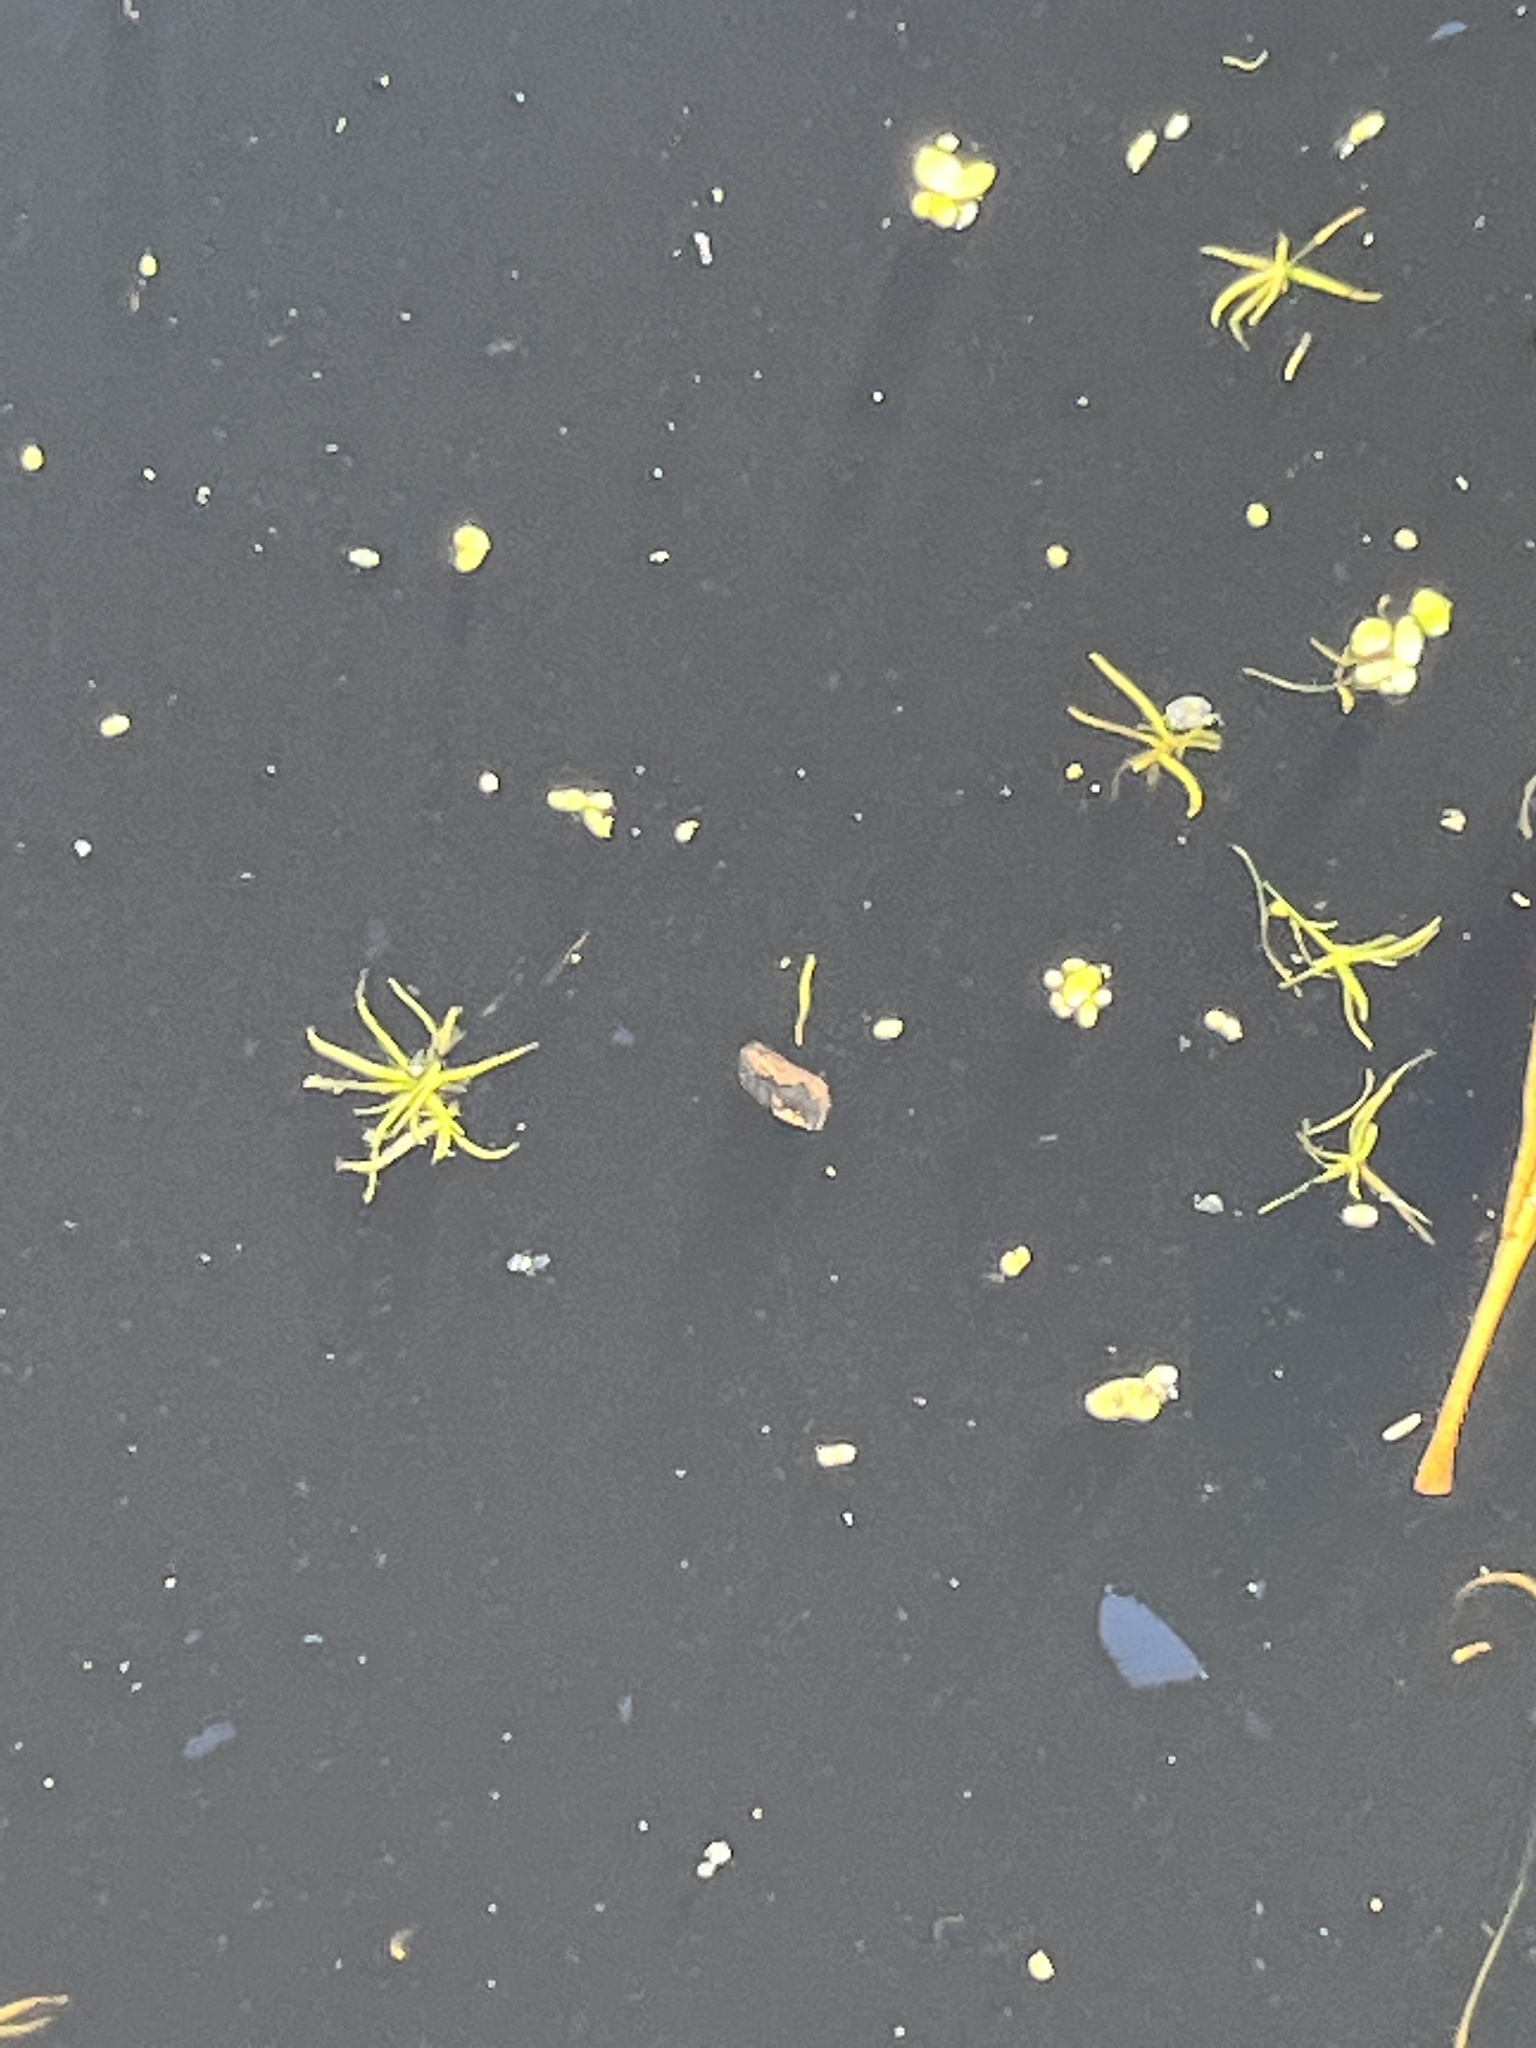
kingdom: Plantae
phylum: Tracheophyta
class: Liliopsida
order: Alismatales
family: Araceae
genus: Wolffiella
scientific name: Wolffiella gladiata
